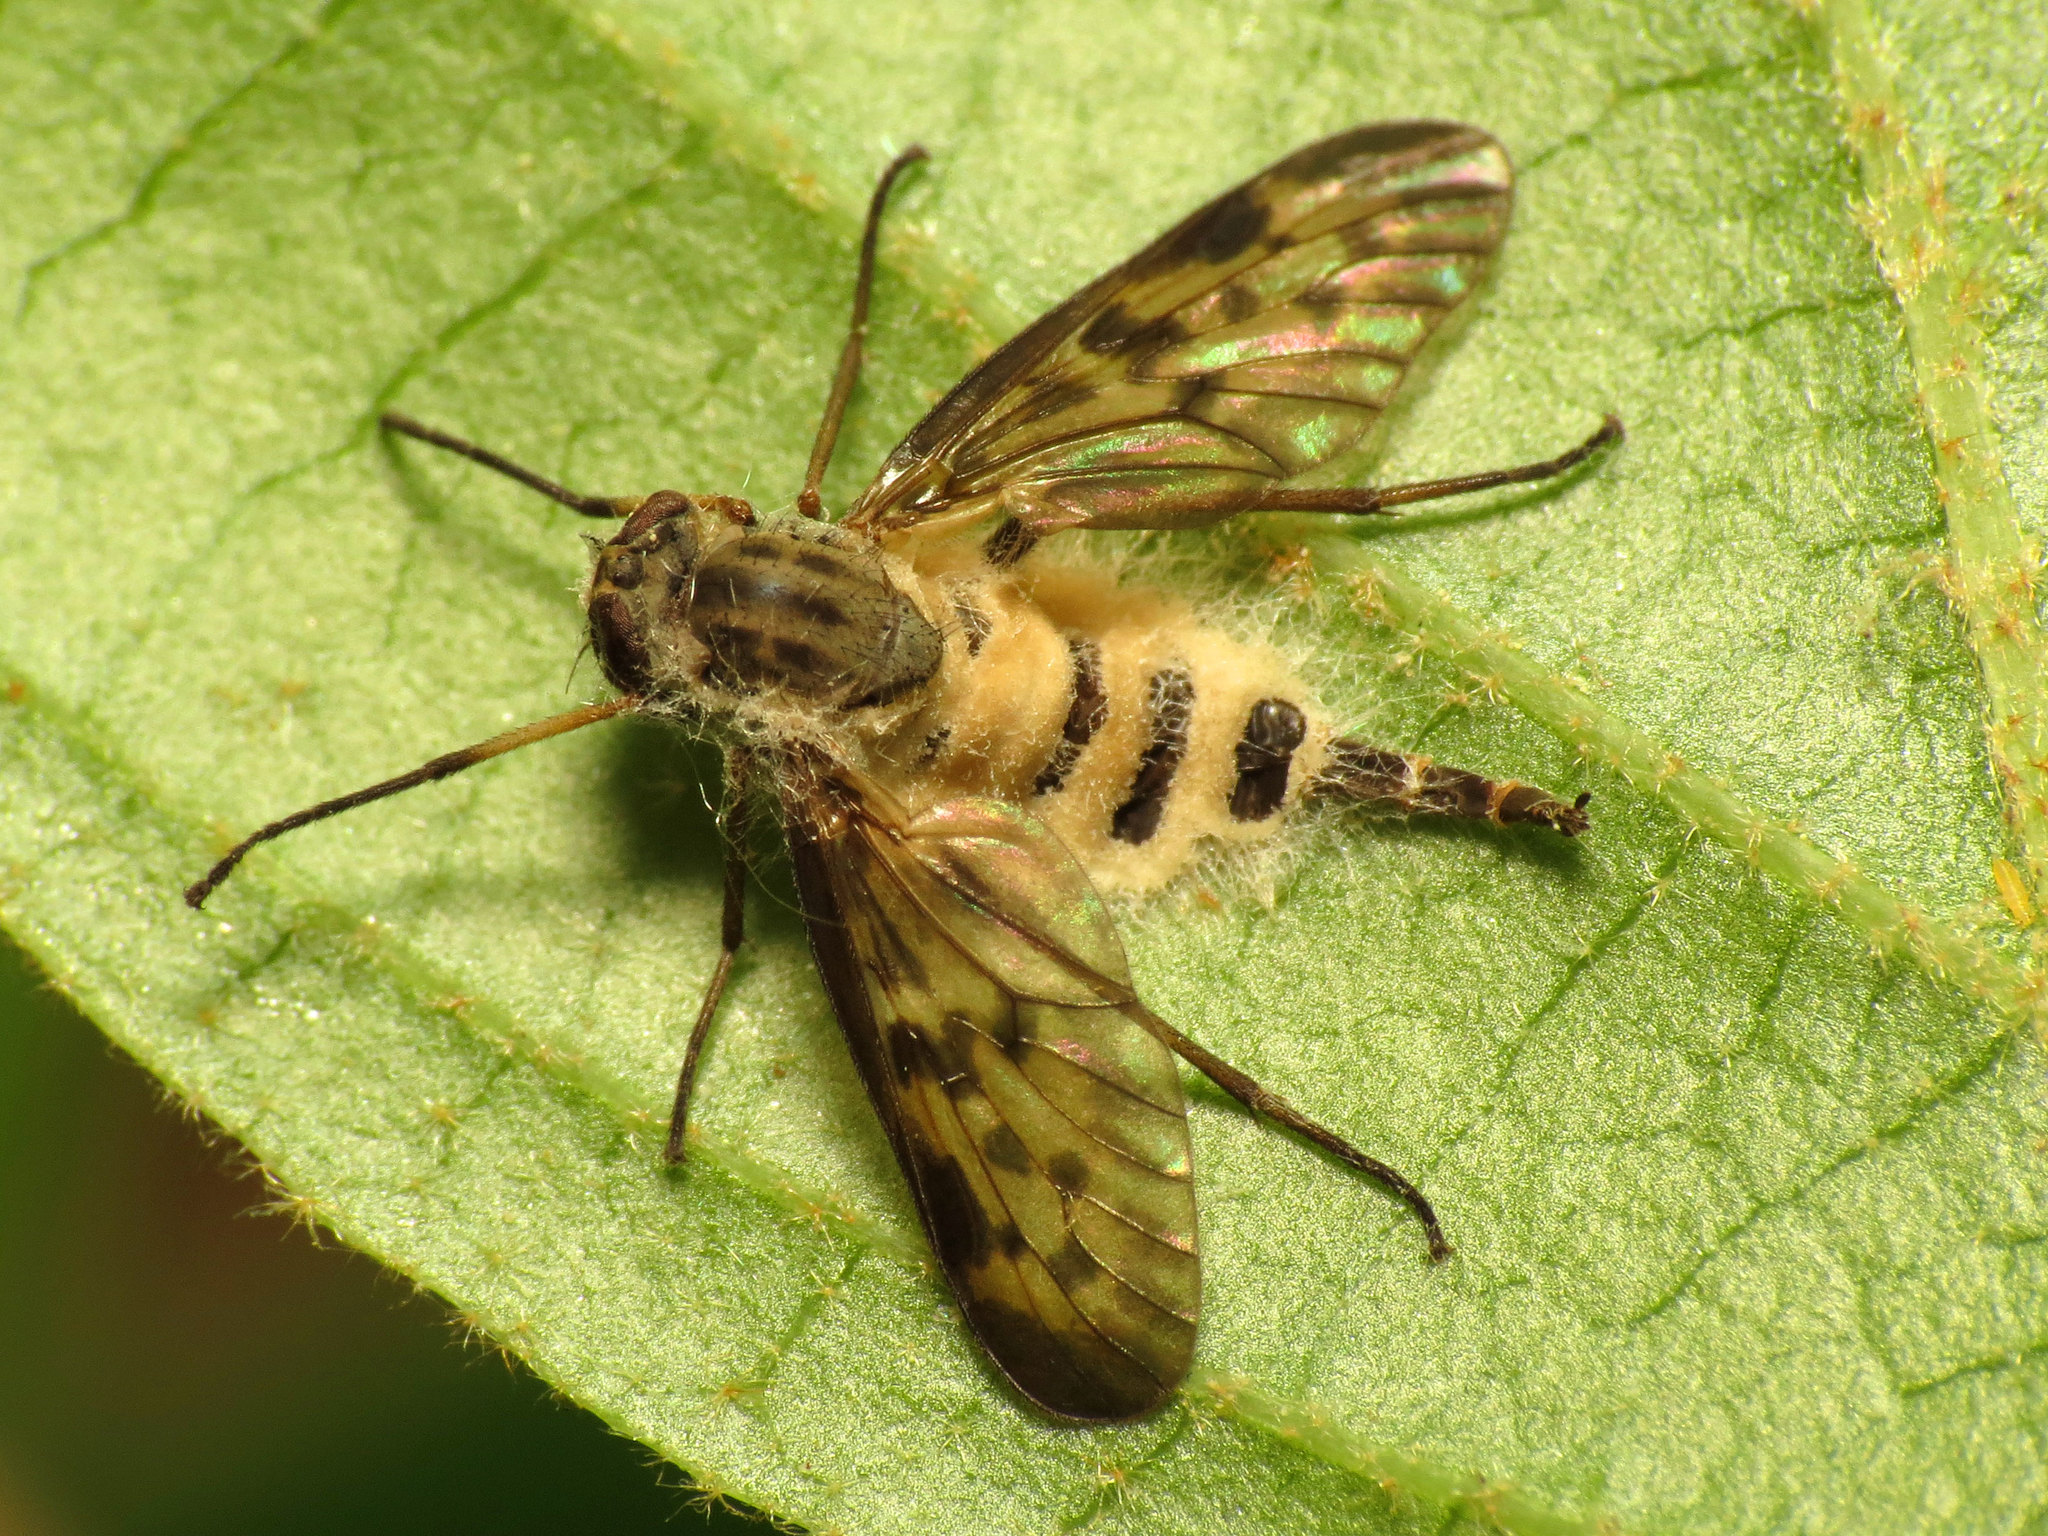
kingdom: Fungi
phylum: Entomophthoromycota
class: Entomophthoromycetes
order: Entomophthorales
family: Entomophthoraceae
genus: Furia
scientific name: Furia ithacensis
